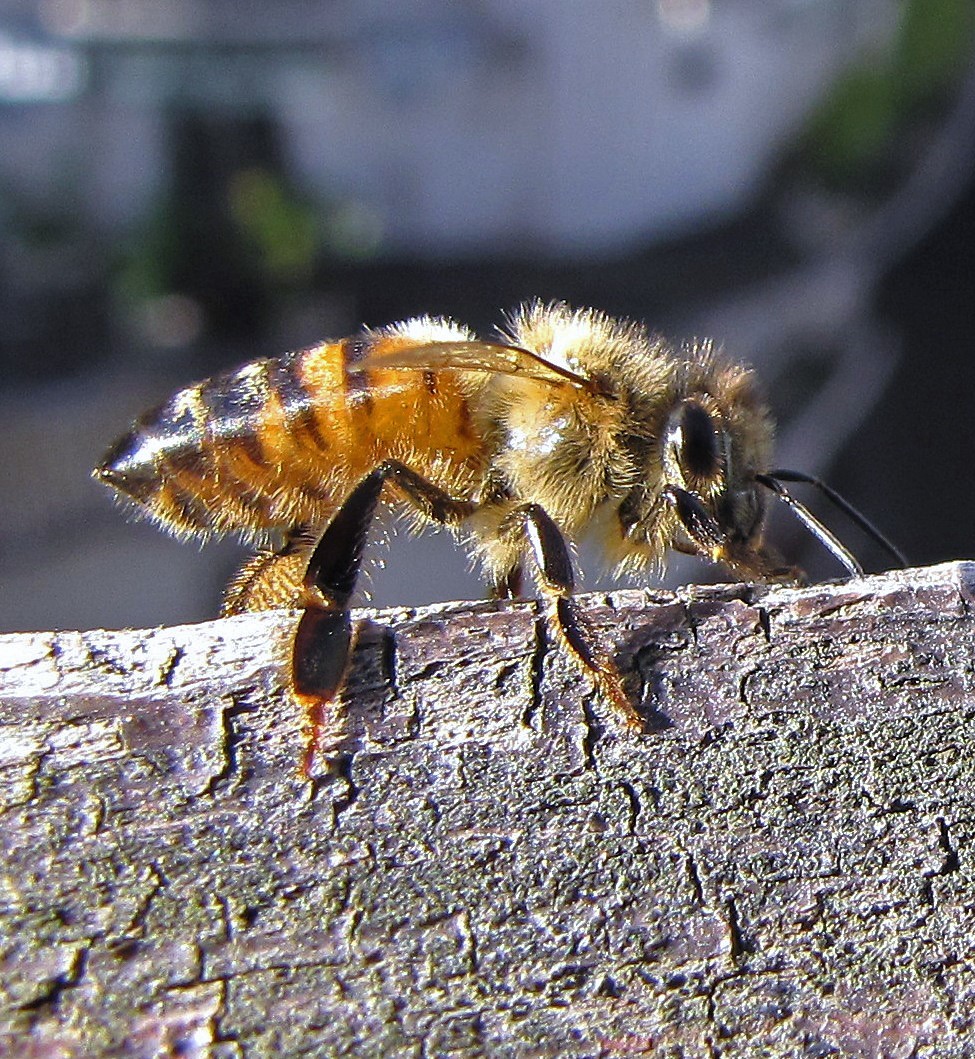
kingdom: Animalia
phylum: Arthropoda
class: Insecta
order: Hymenoptera
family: Apidae
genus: Apis
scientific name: Apis mellifera
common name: Honey bee
